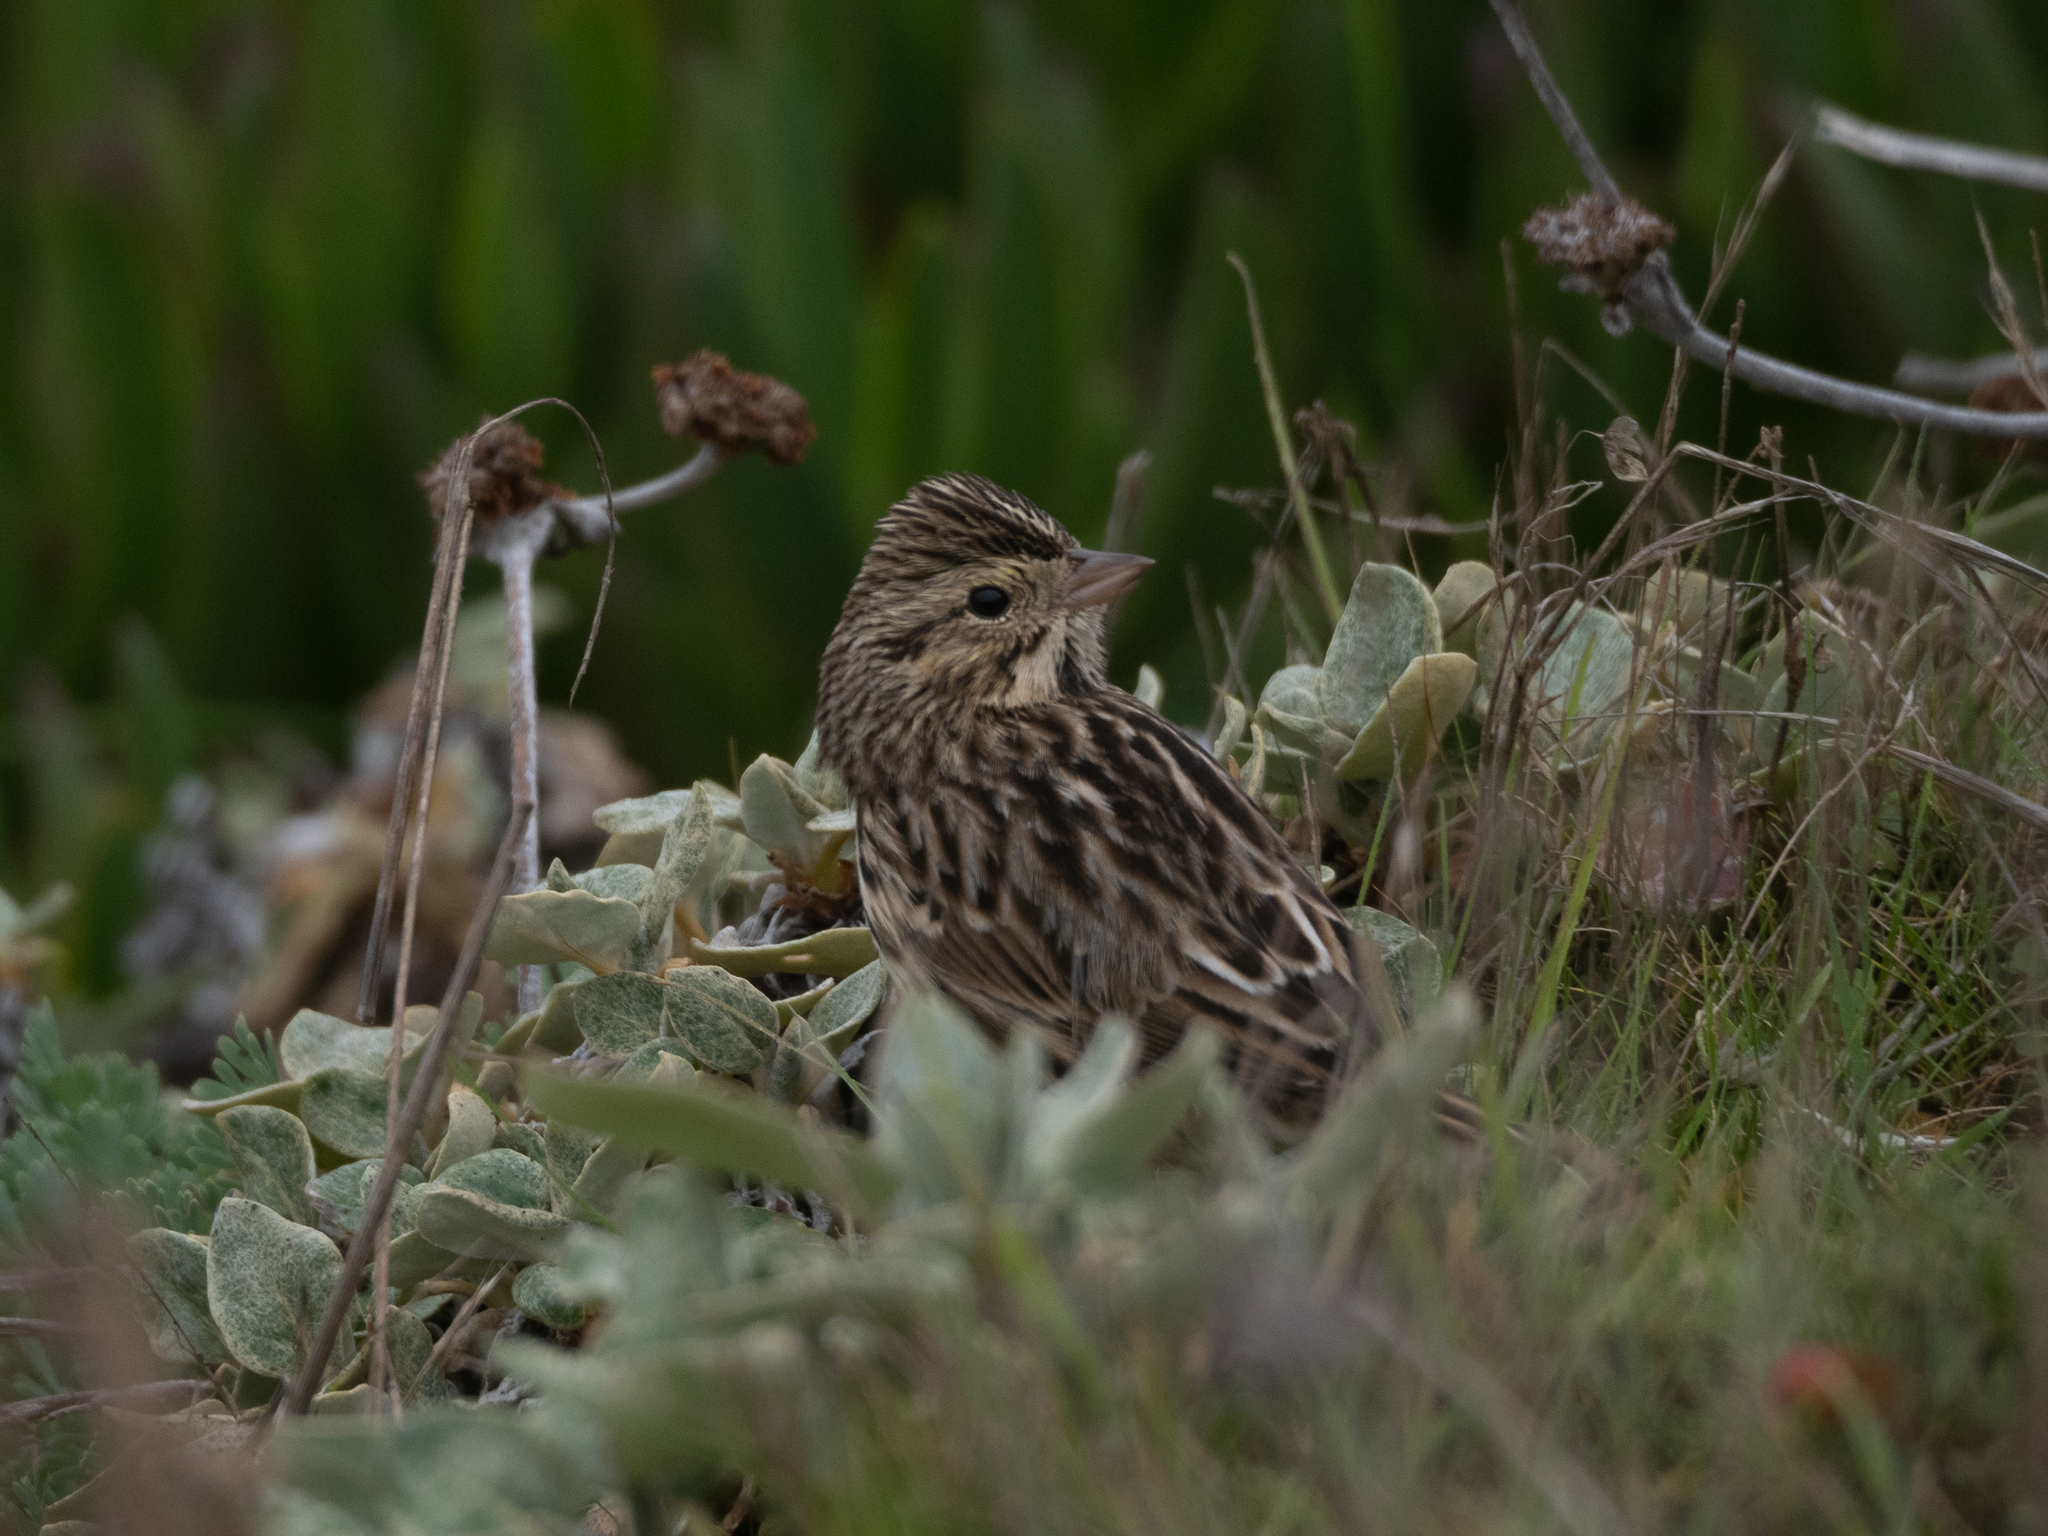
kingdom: Animalia
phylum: Chordata
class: Aves
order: Passeriformes
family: Passerellidae
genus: Passerculus
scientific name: Passerculus sandwichensis
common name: Savannah sparrow
